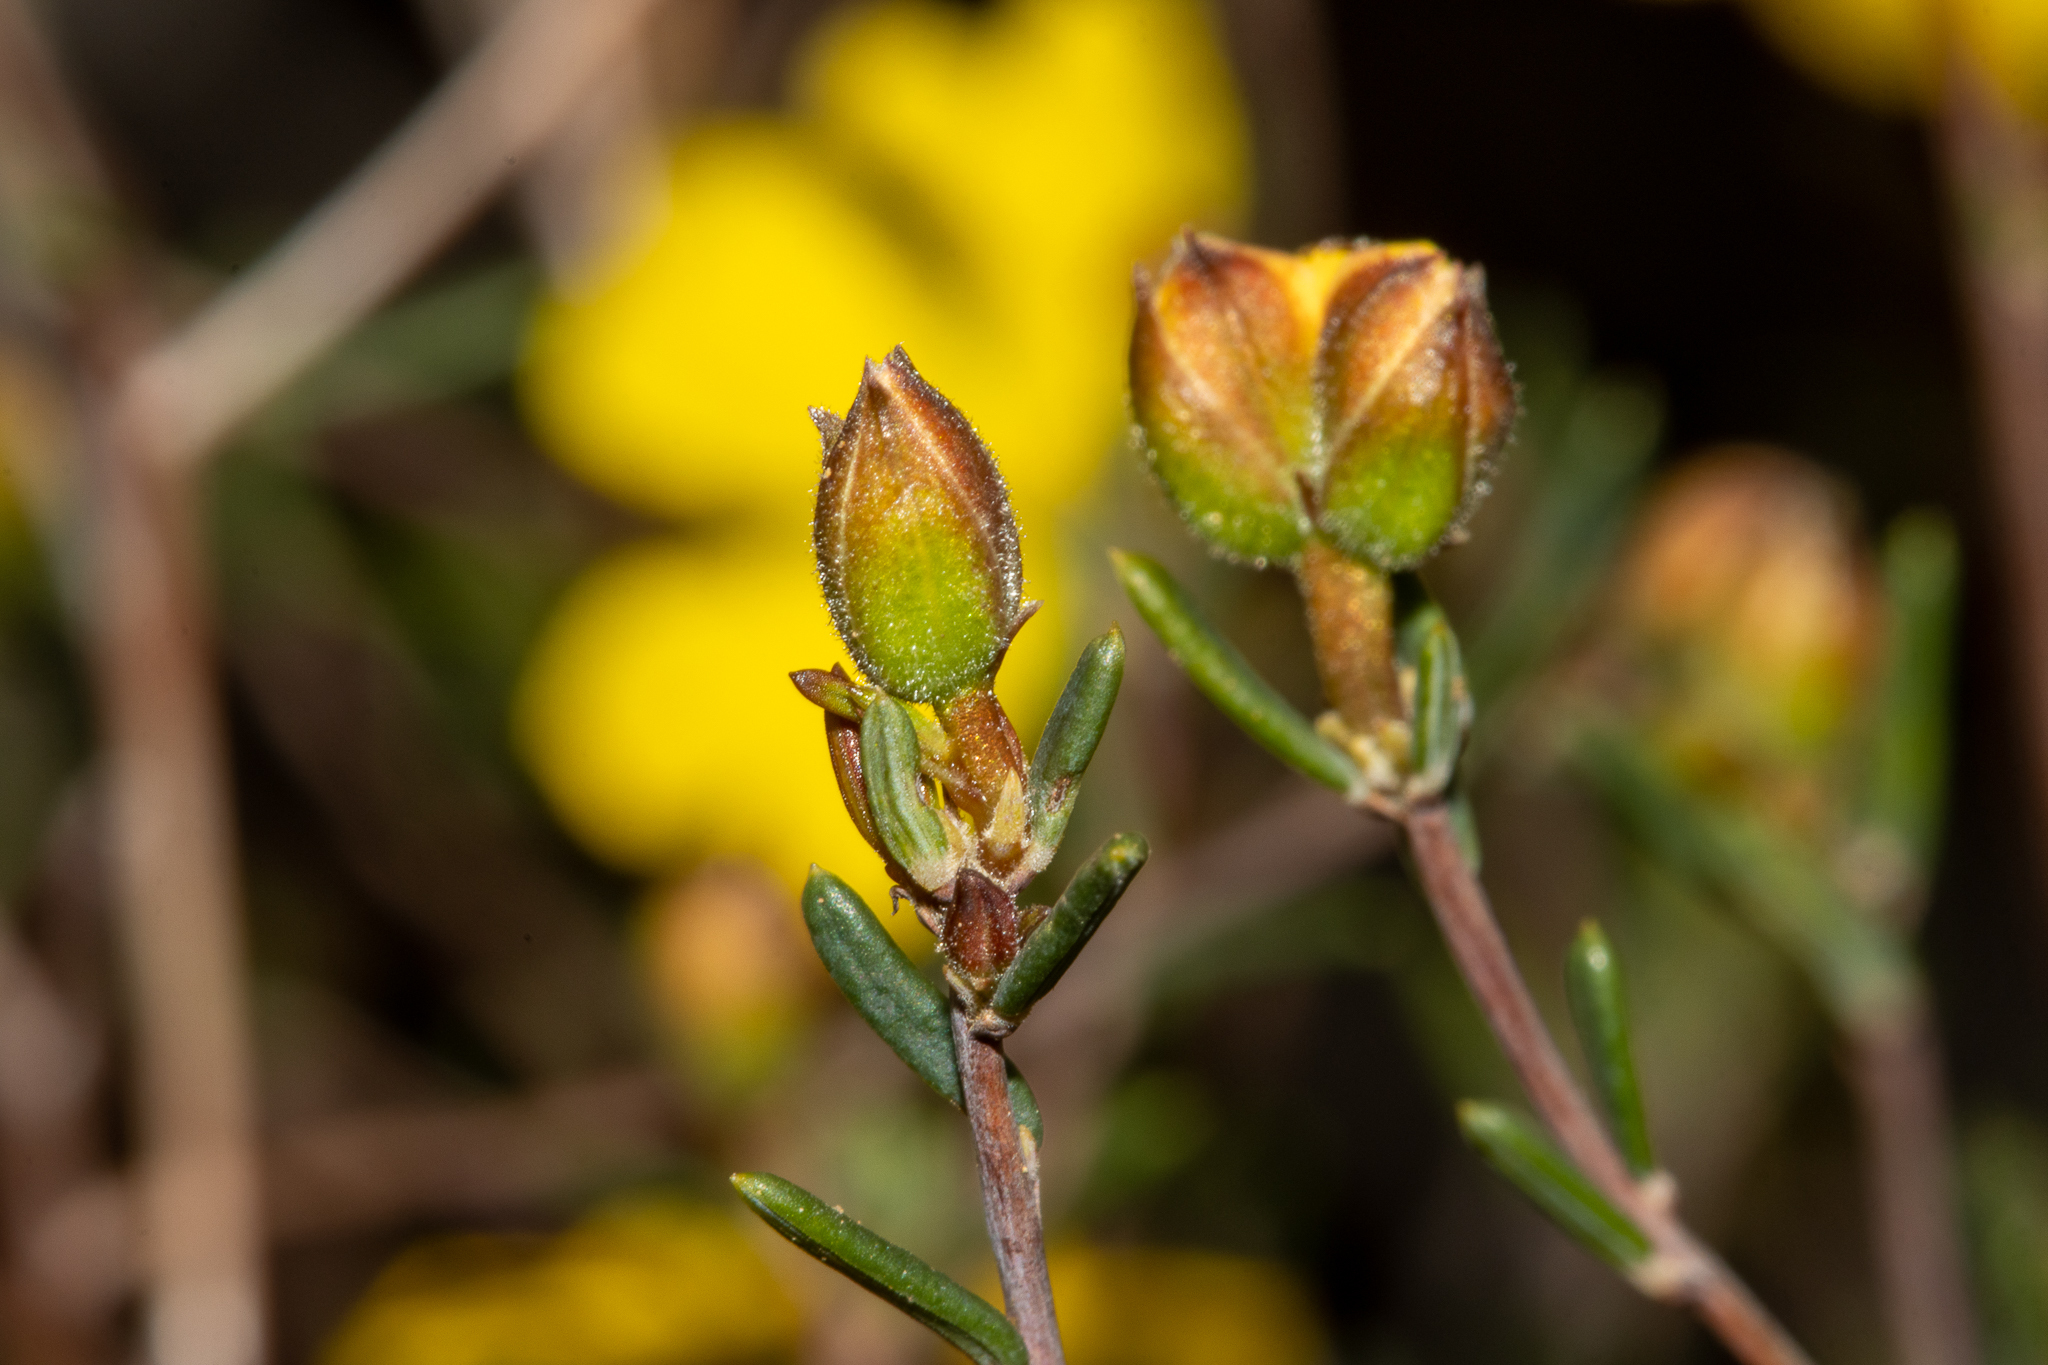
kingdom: Plantae
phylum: Tracheophyta
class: Magnoliopsida
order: Dilleniales
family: Dilleniaceae
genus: Hibbertia
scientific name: Hibbertia ancistrotricha
